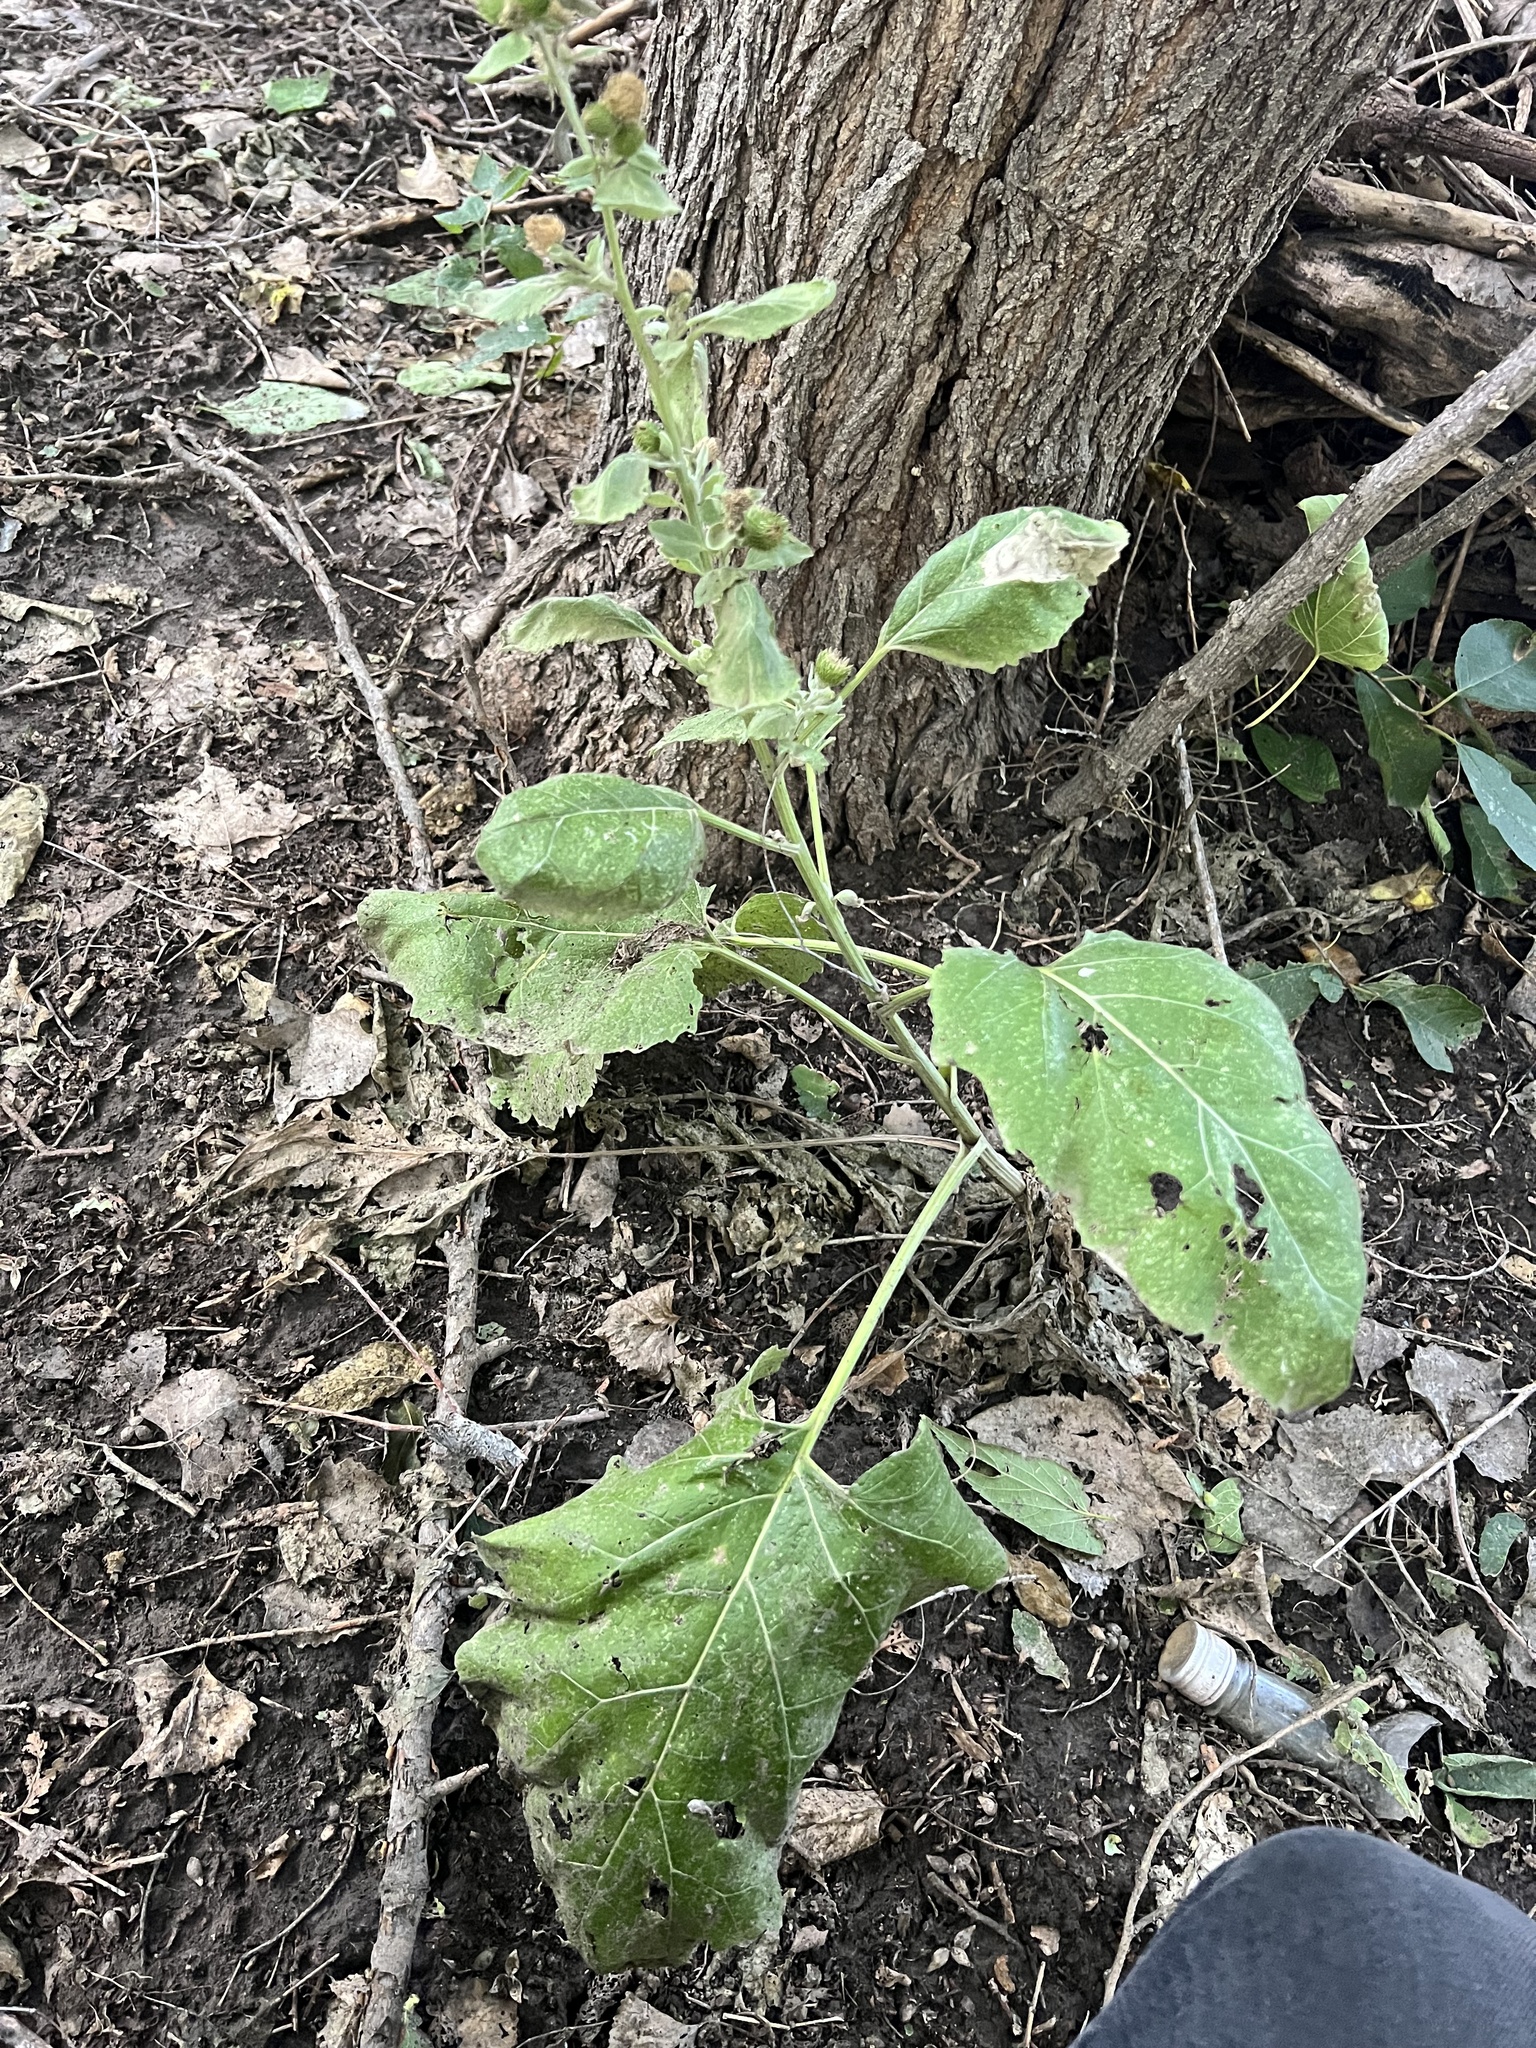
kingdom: Plantae
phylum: Tracheophyta
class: Magnoliopsida
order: Asterales
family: Asteraceae
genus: Arctium
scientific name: Arctium minus
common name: Lesser burdock
